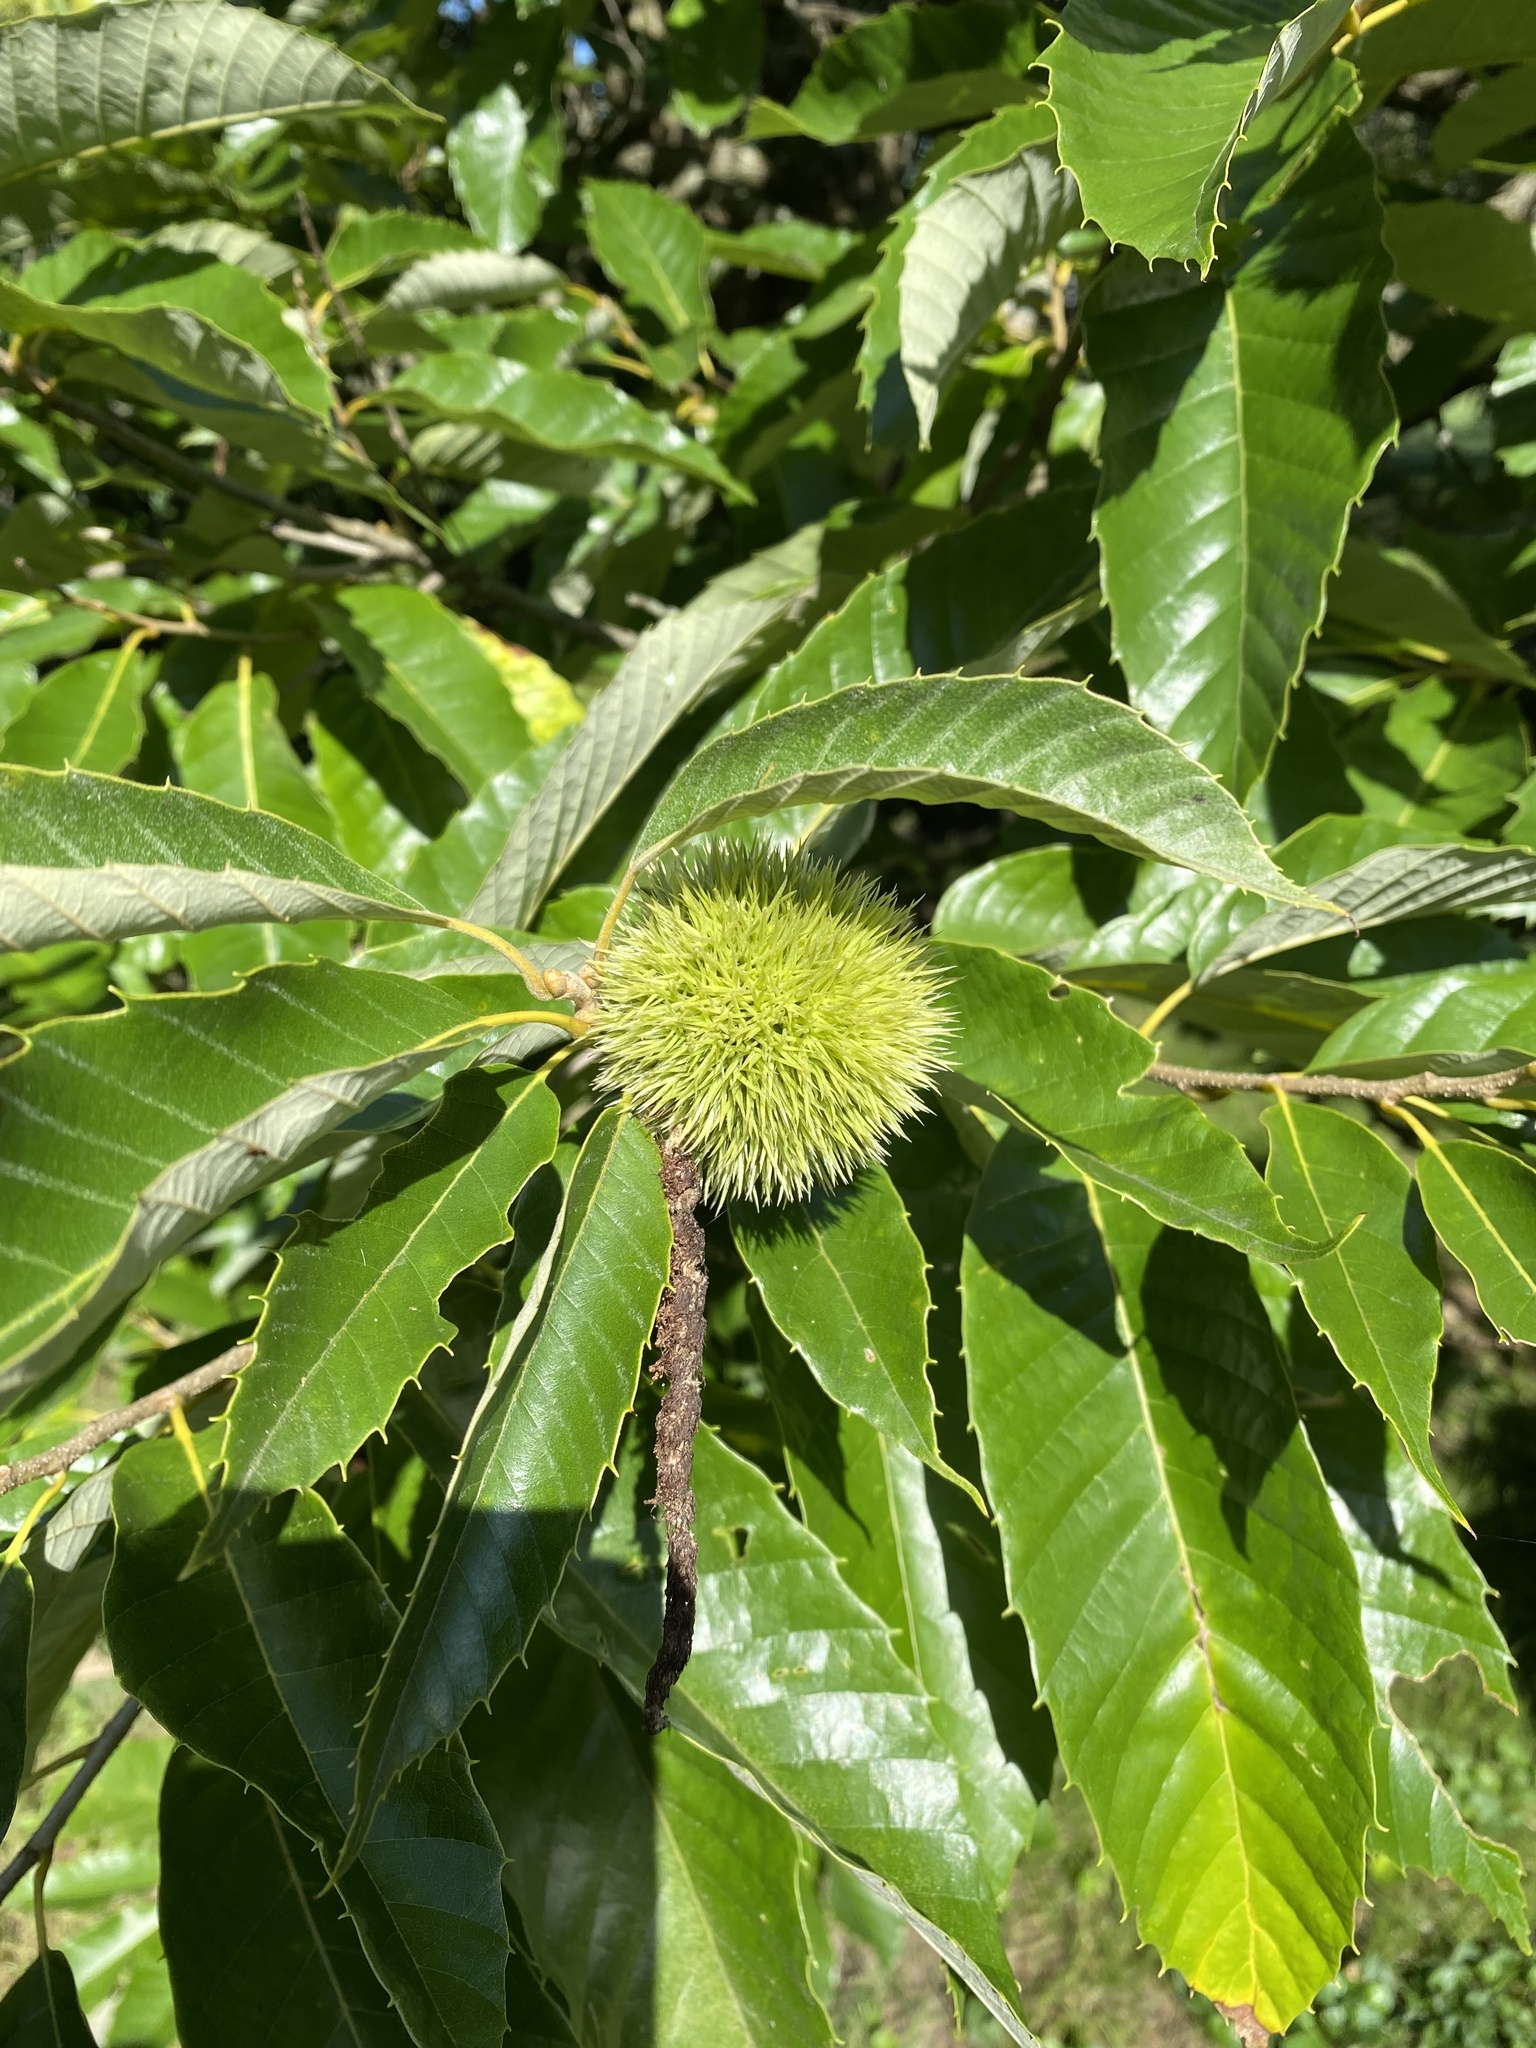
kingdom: Plantae
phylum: Tracheophyta
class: Magnoliopsida
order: Fagales
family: Fagaceae
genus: Castanea
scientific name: Castanea mollissima
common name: Chinese chestnut
